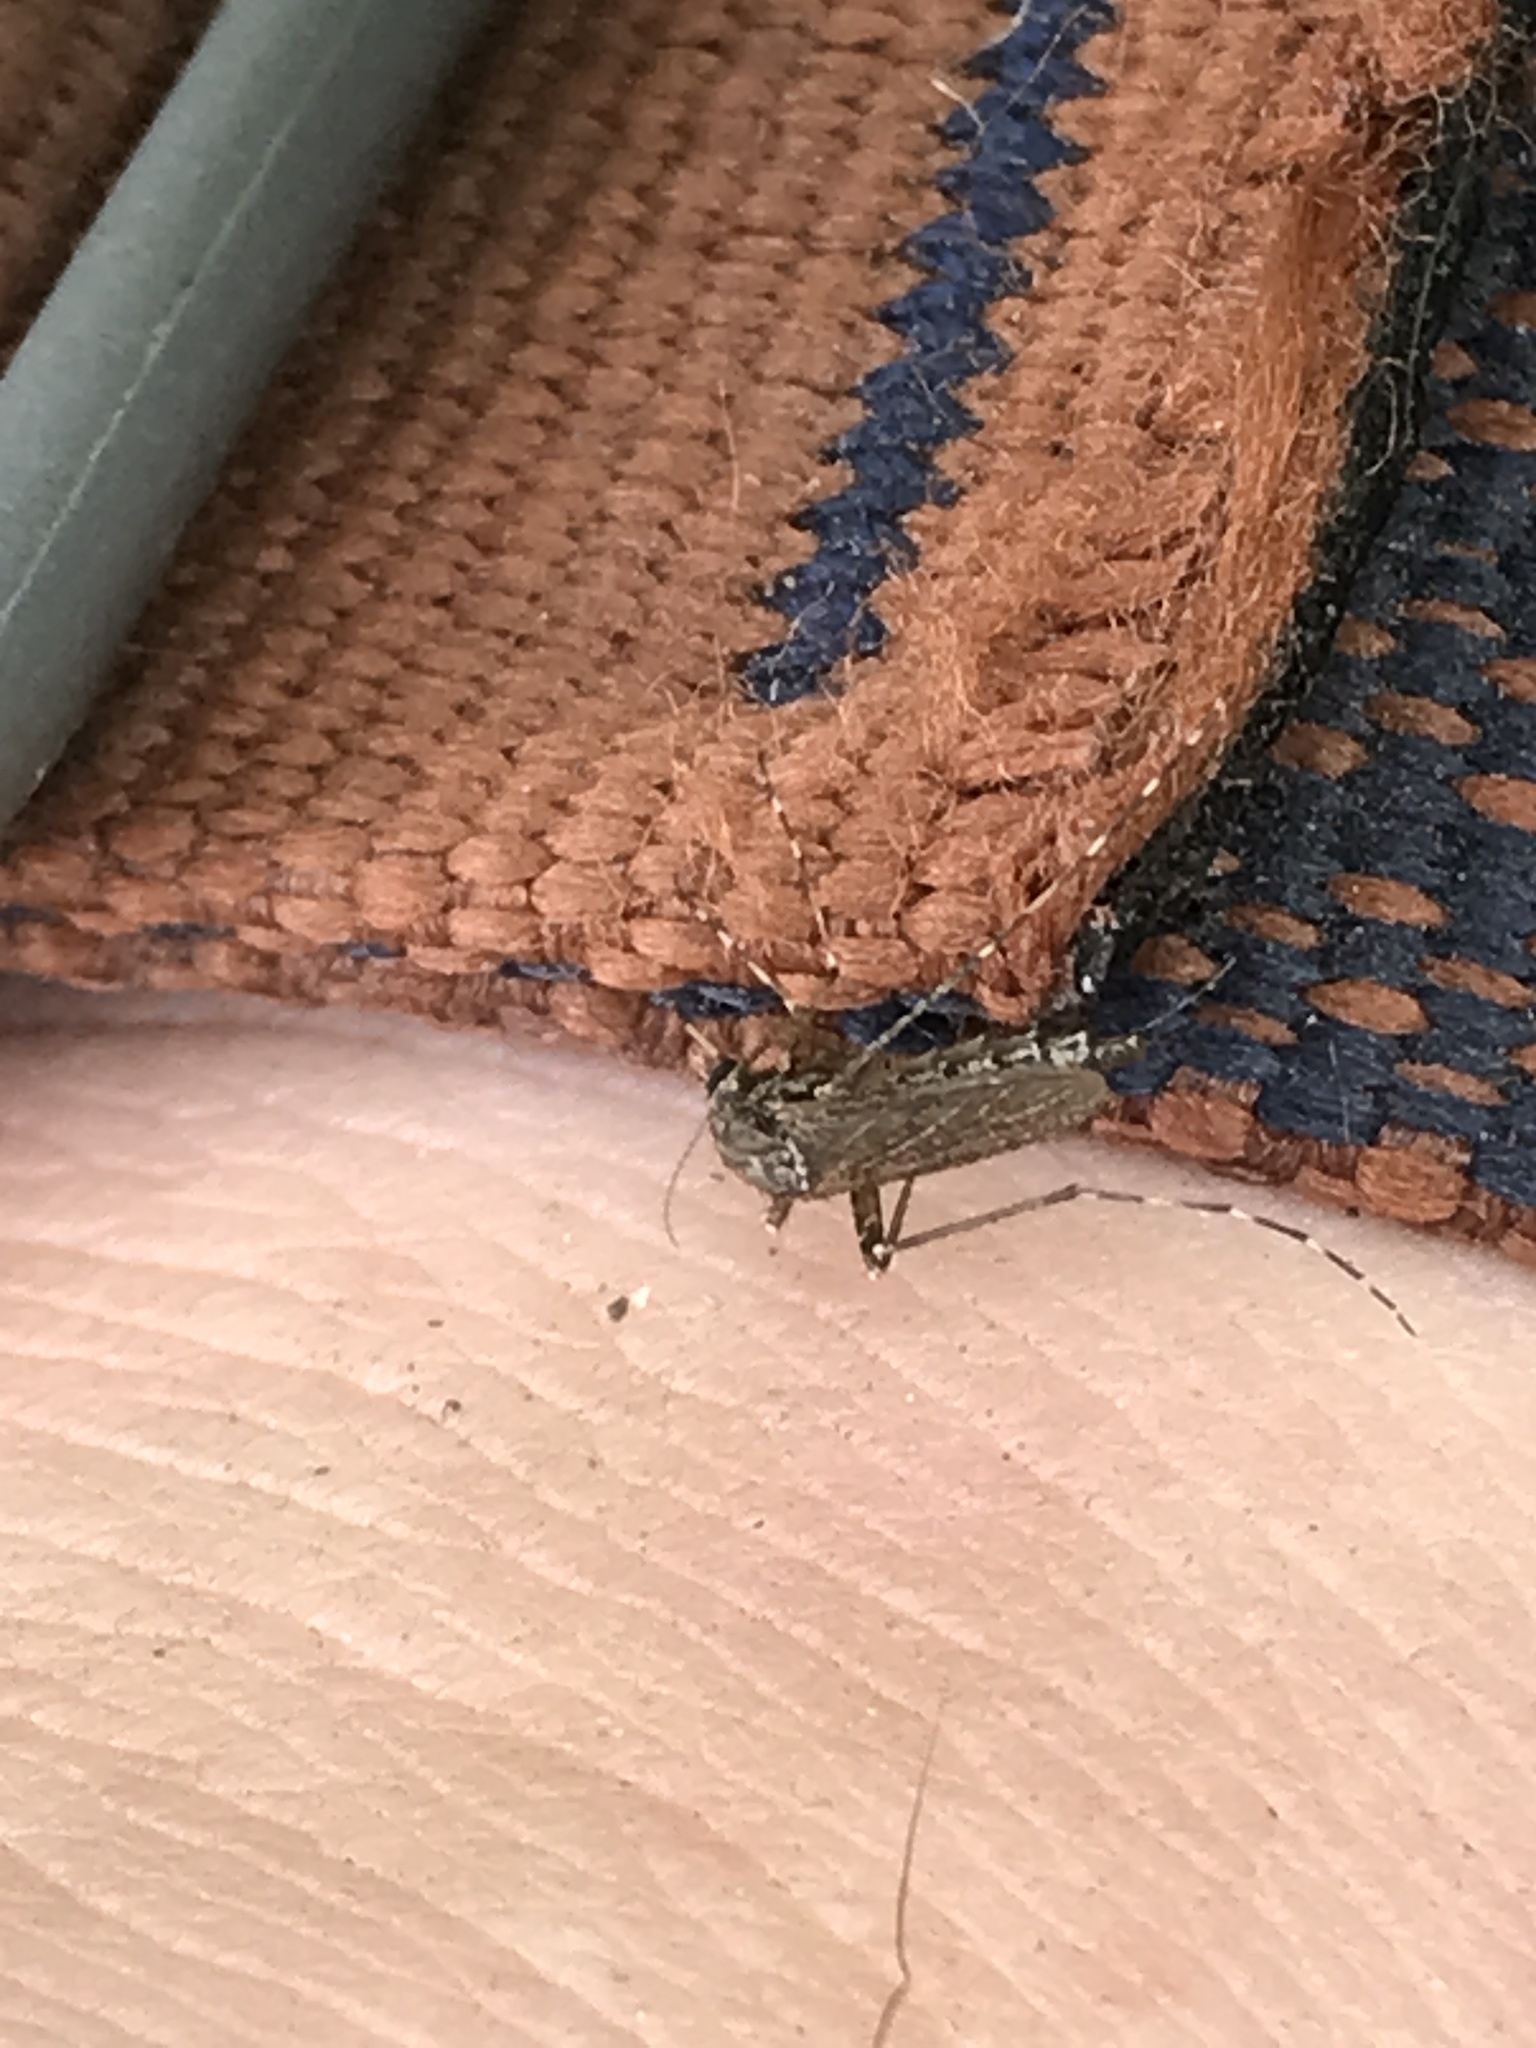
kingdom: Animalia
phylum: Arthropoda
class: Insecta
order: Diptera
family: Culicidae
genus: Psorophora
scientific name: Psorophora columbiae
